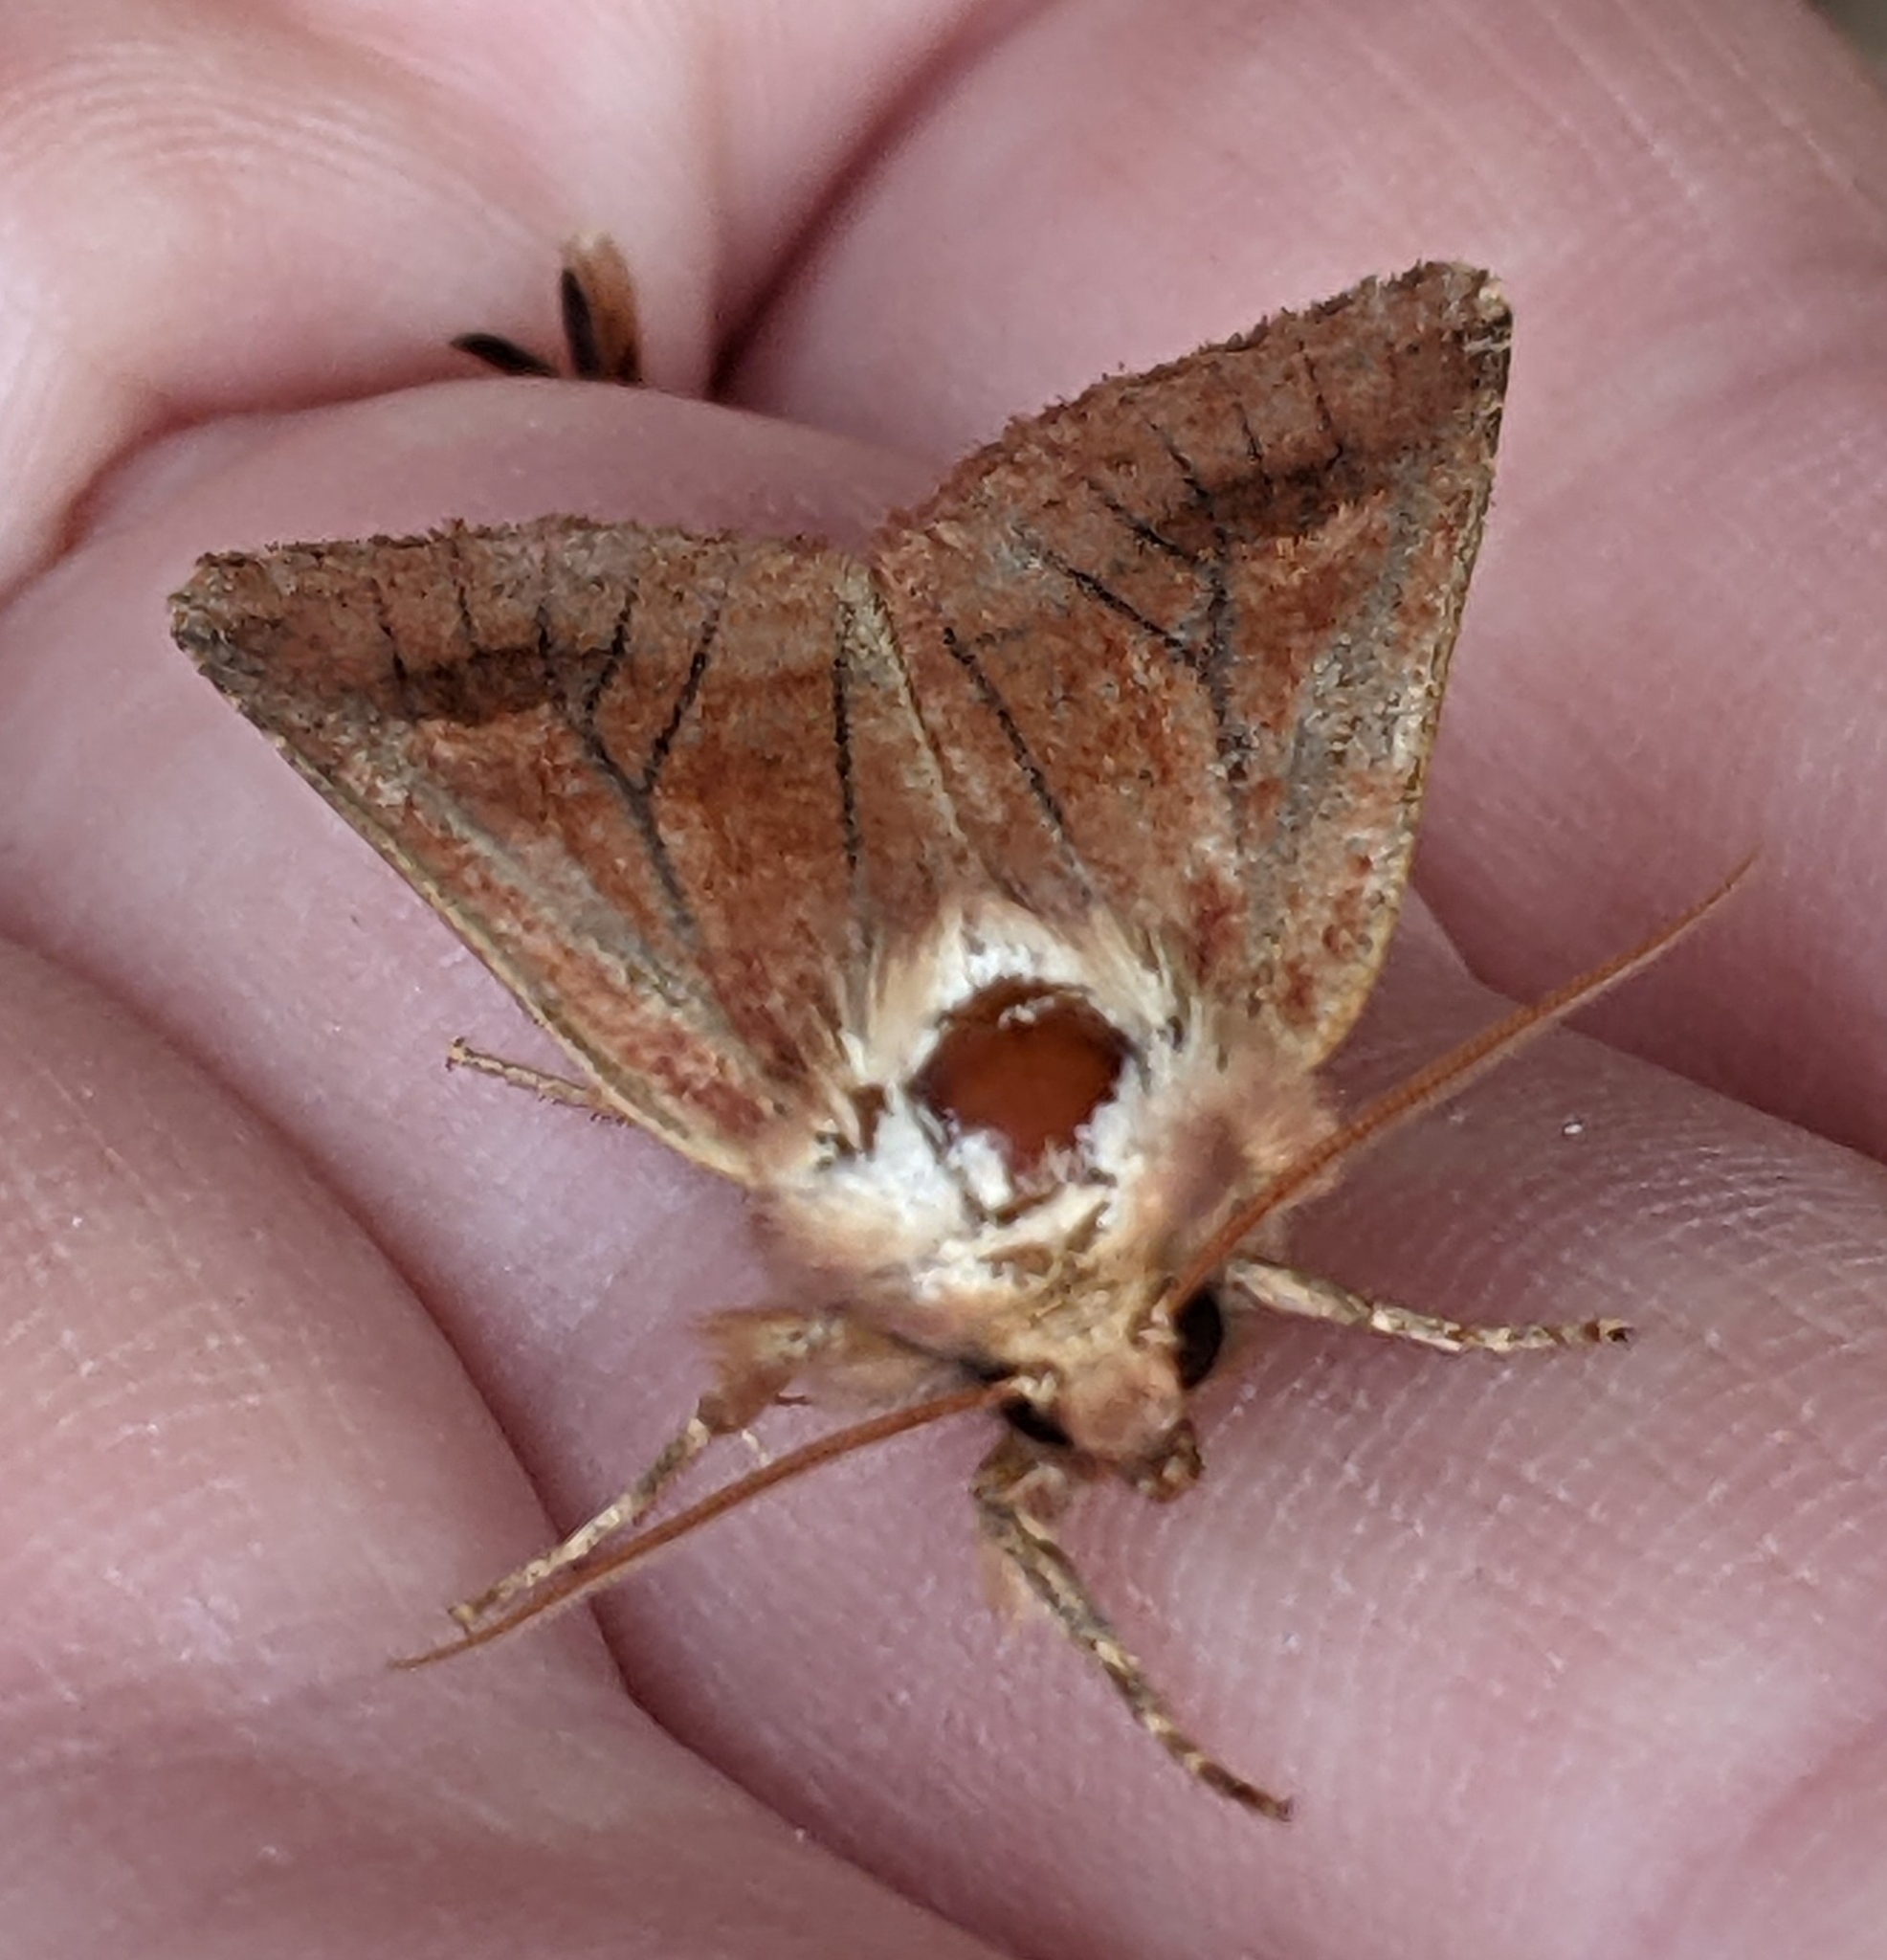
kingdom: Animalia
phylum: Arthropoda
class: Insecta
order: Lepidoptera
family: Noctuidae
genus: Nephelodes
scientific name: Nephelodes minians
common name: Bronzed cutworm
